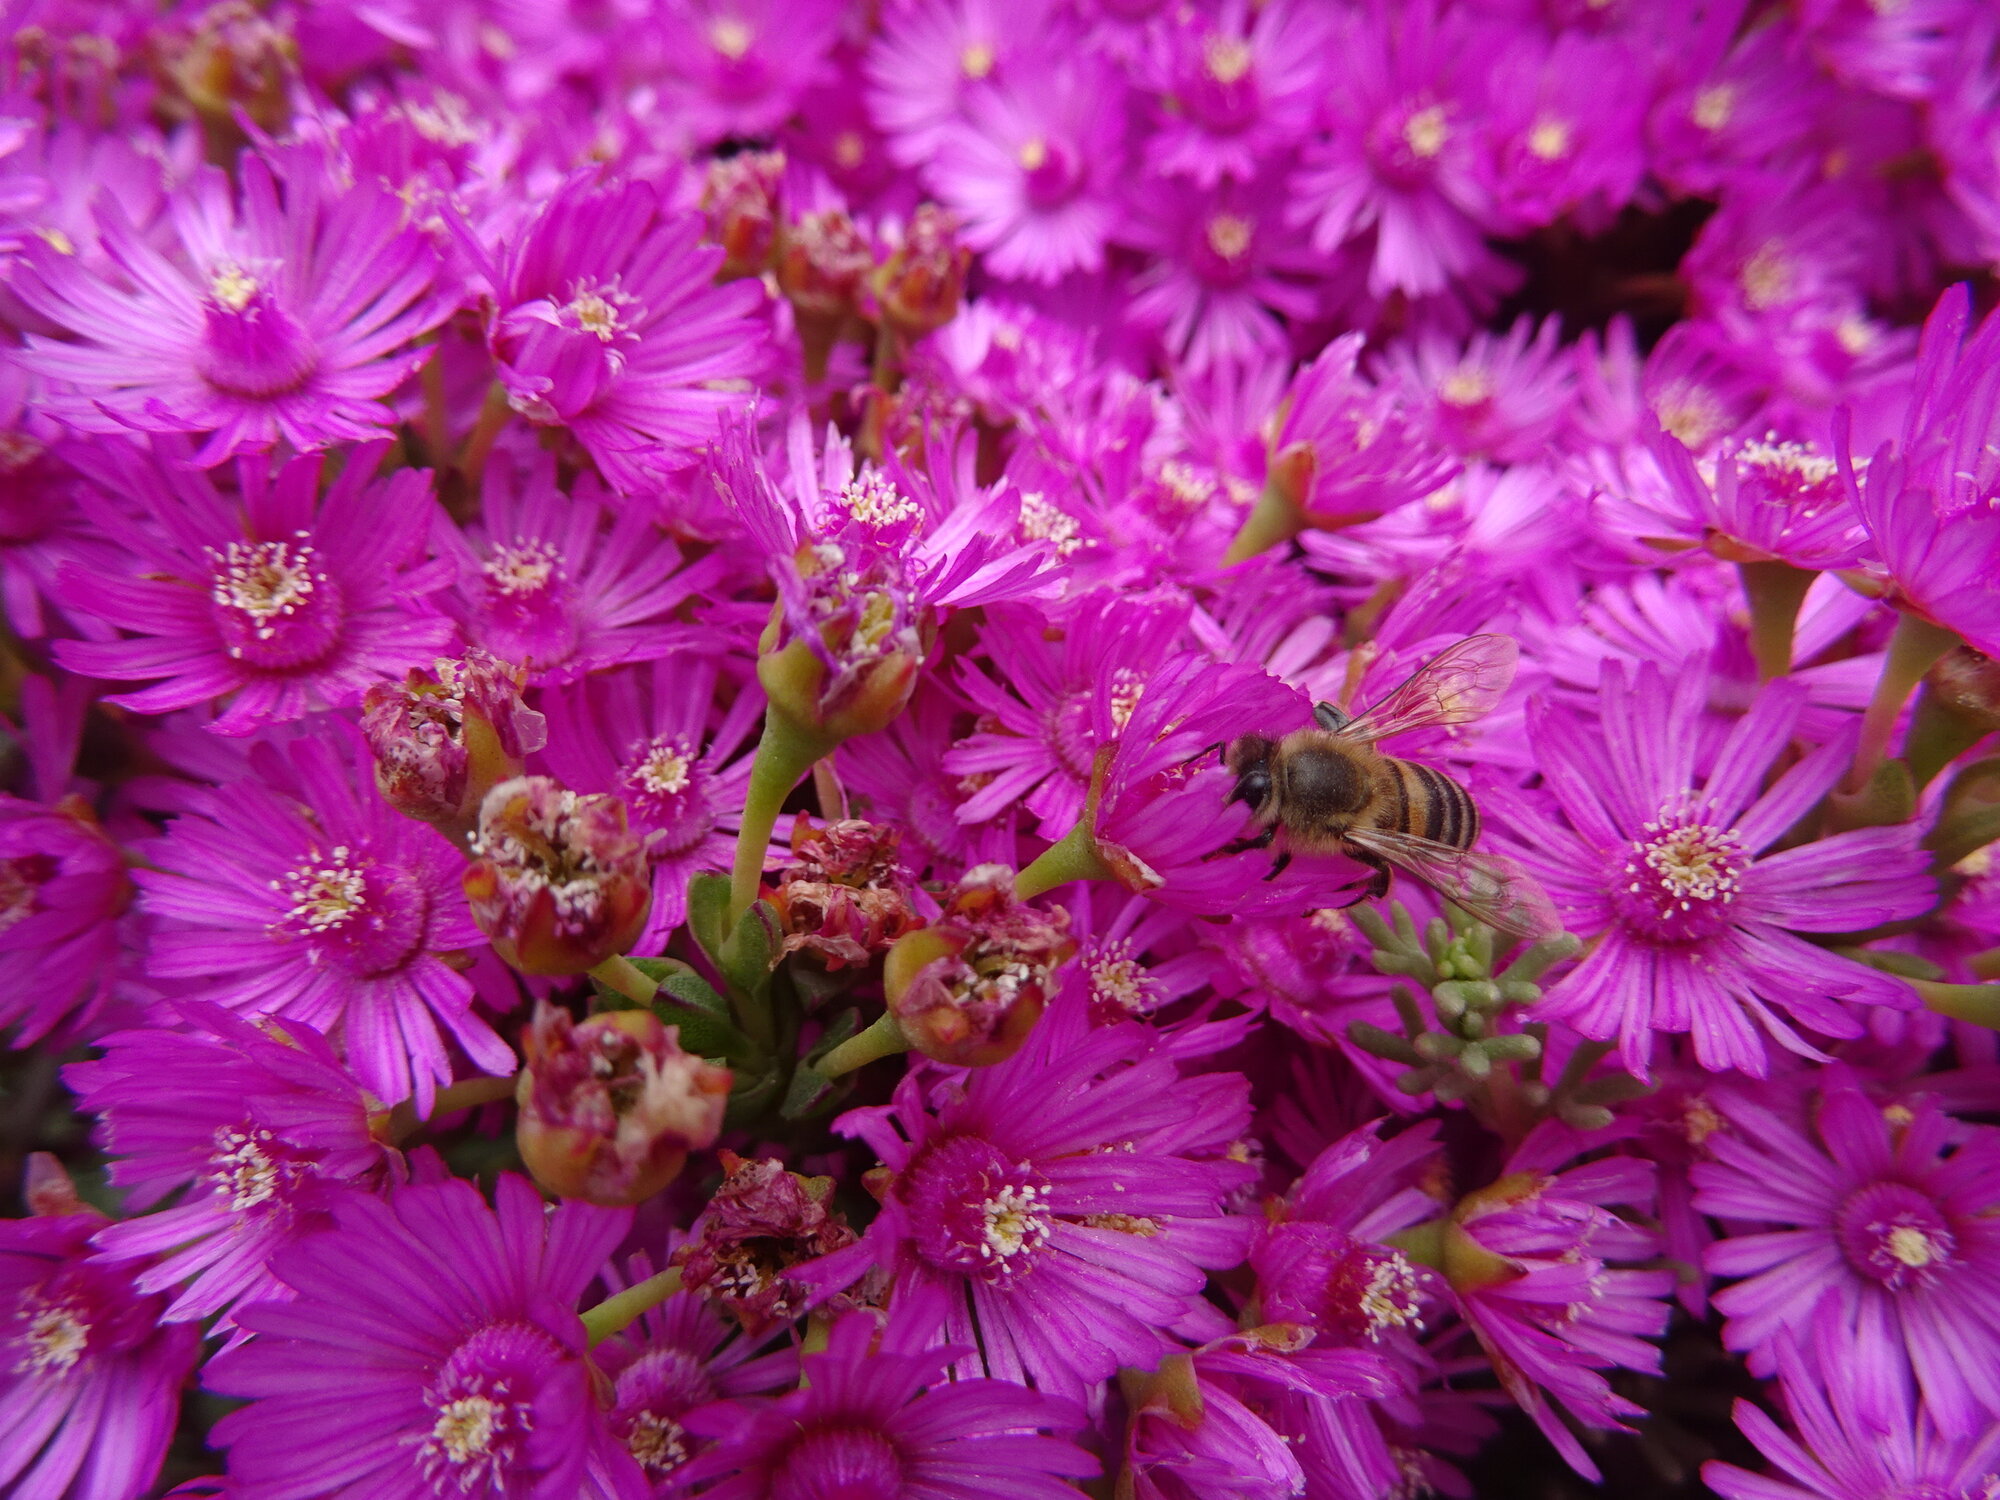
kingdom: Animalia
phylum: Arthropoda
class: Insecta
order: Hymenoptera
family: Apidae
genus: Apis
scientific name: Apis mellifera
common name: Honey bee
